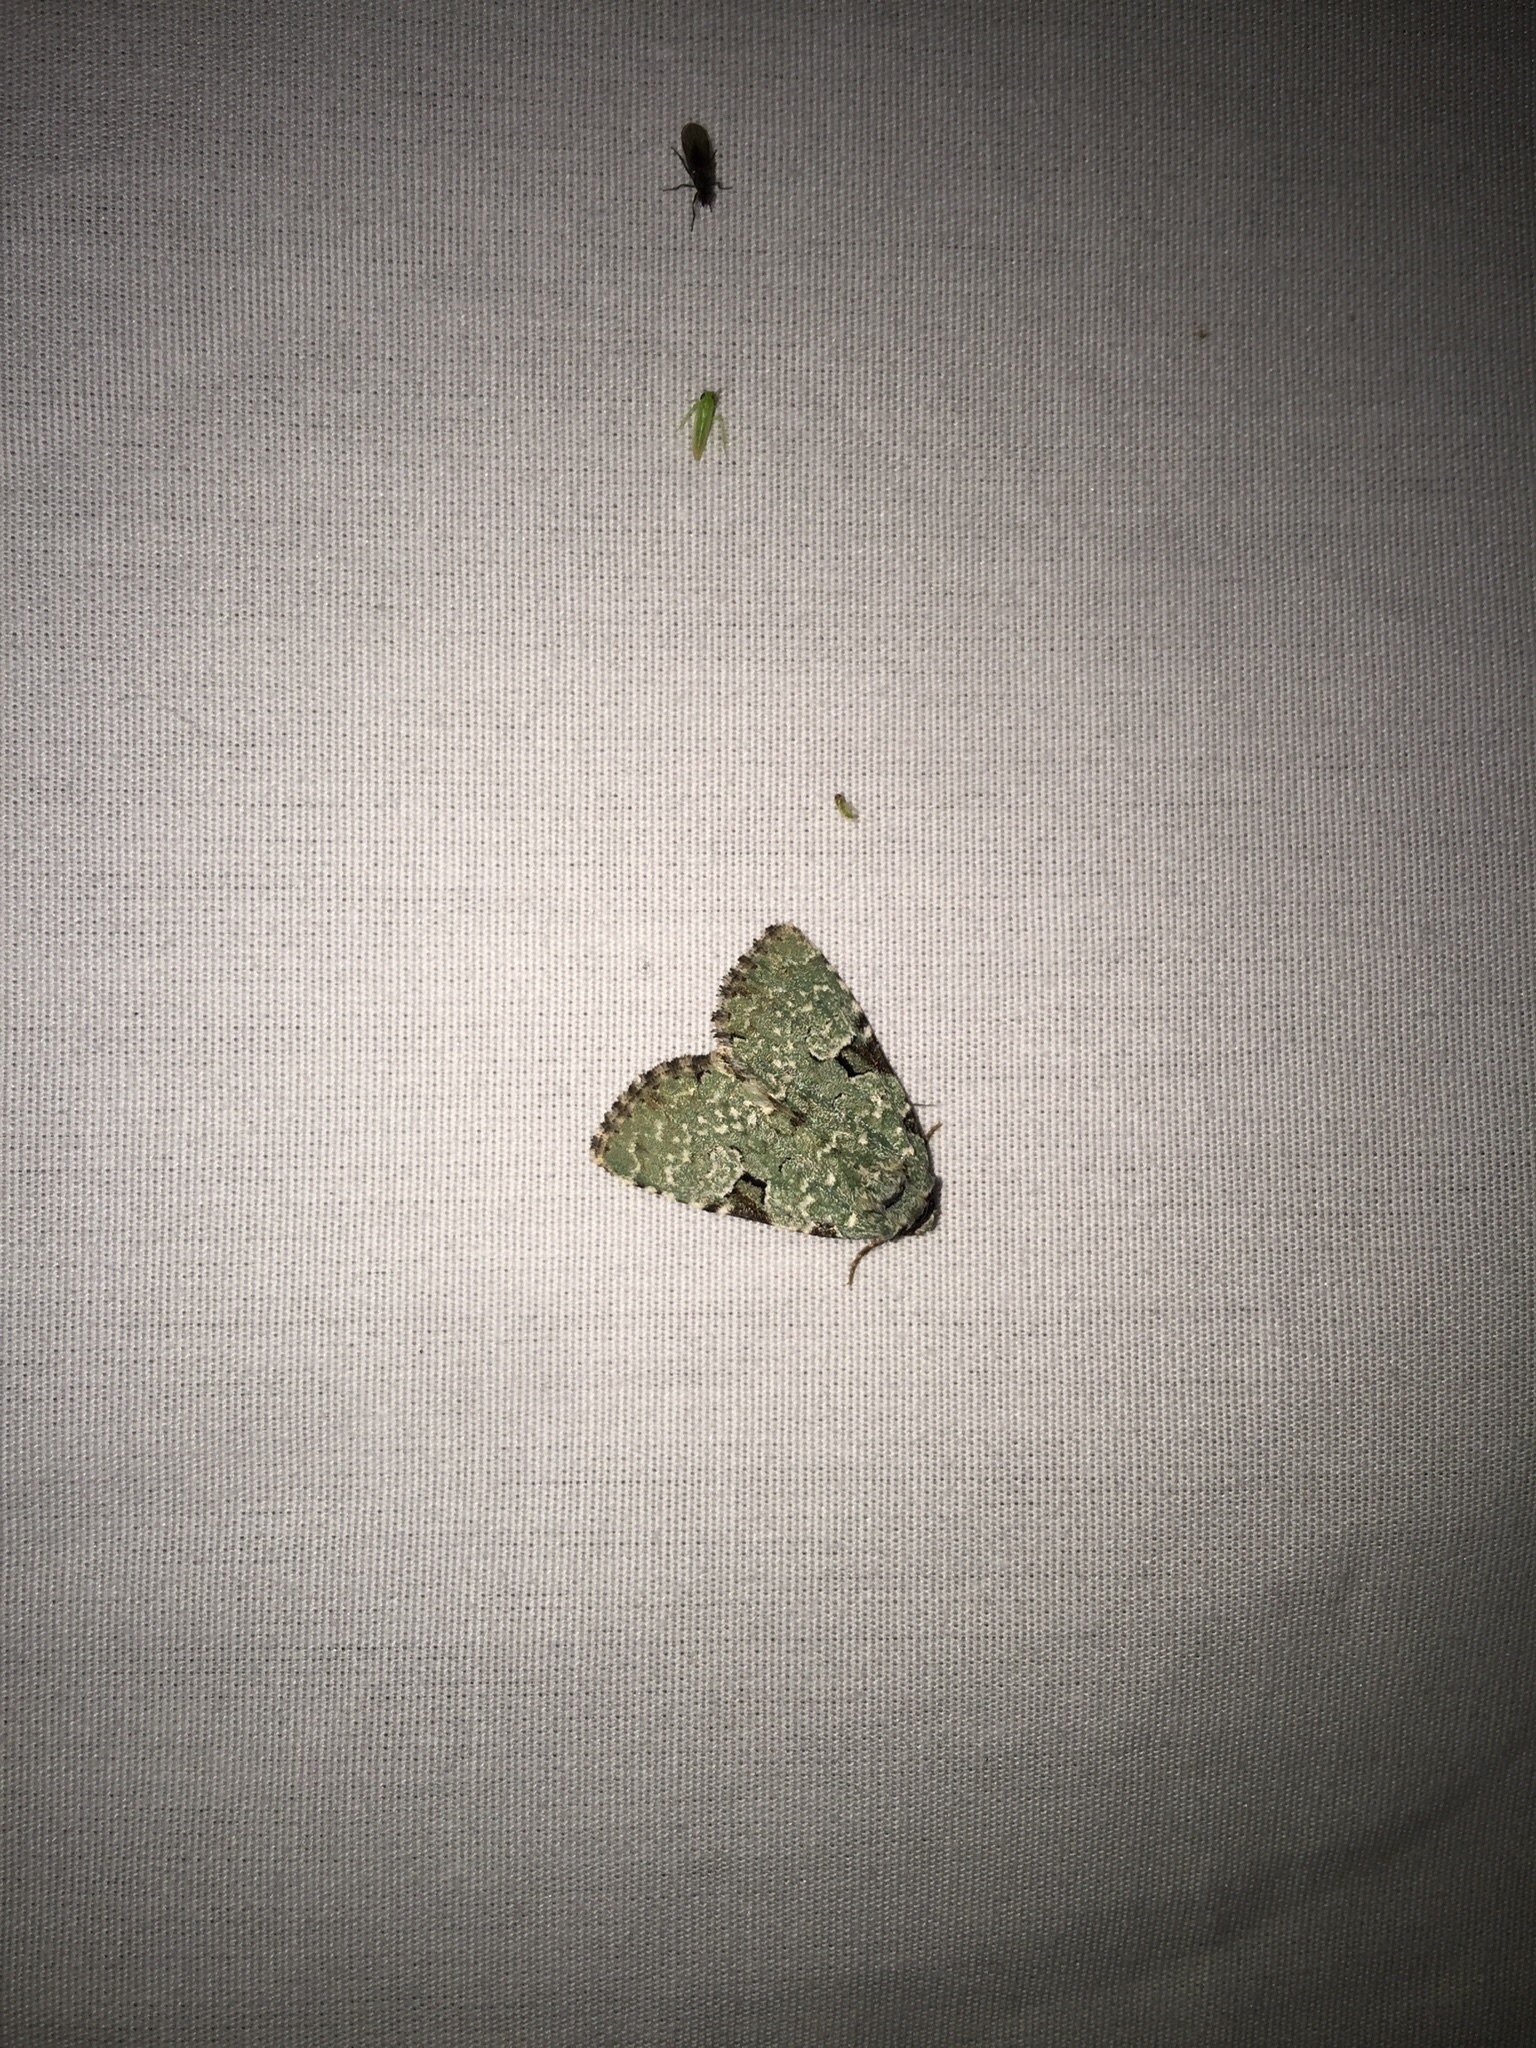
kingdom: Animalia
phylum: Arthropoda
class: Insecta
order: Lepidoptera
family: Noctuidae
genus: Leuconycta
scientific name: Leuconycta diphteroides
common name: Green leuconycta moth
